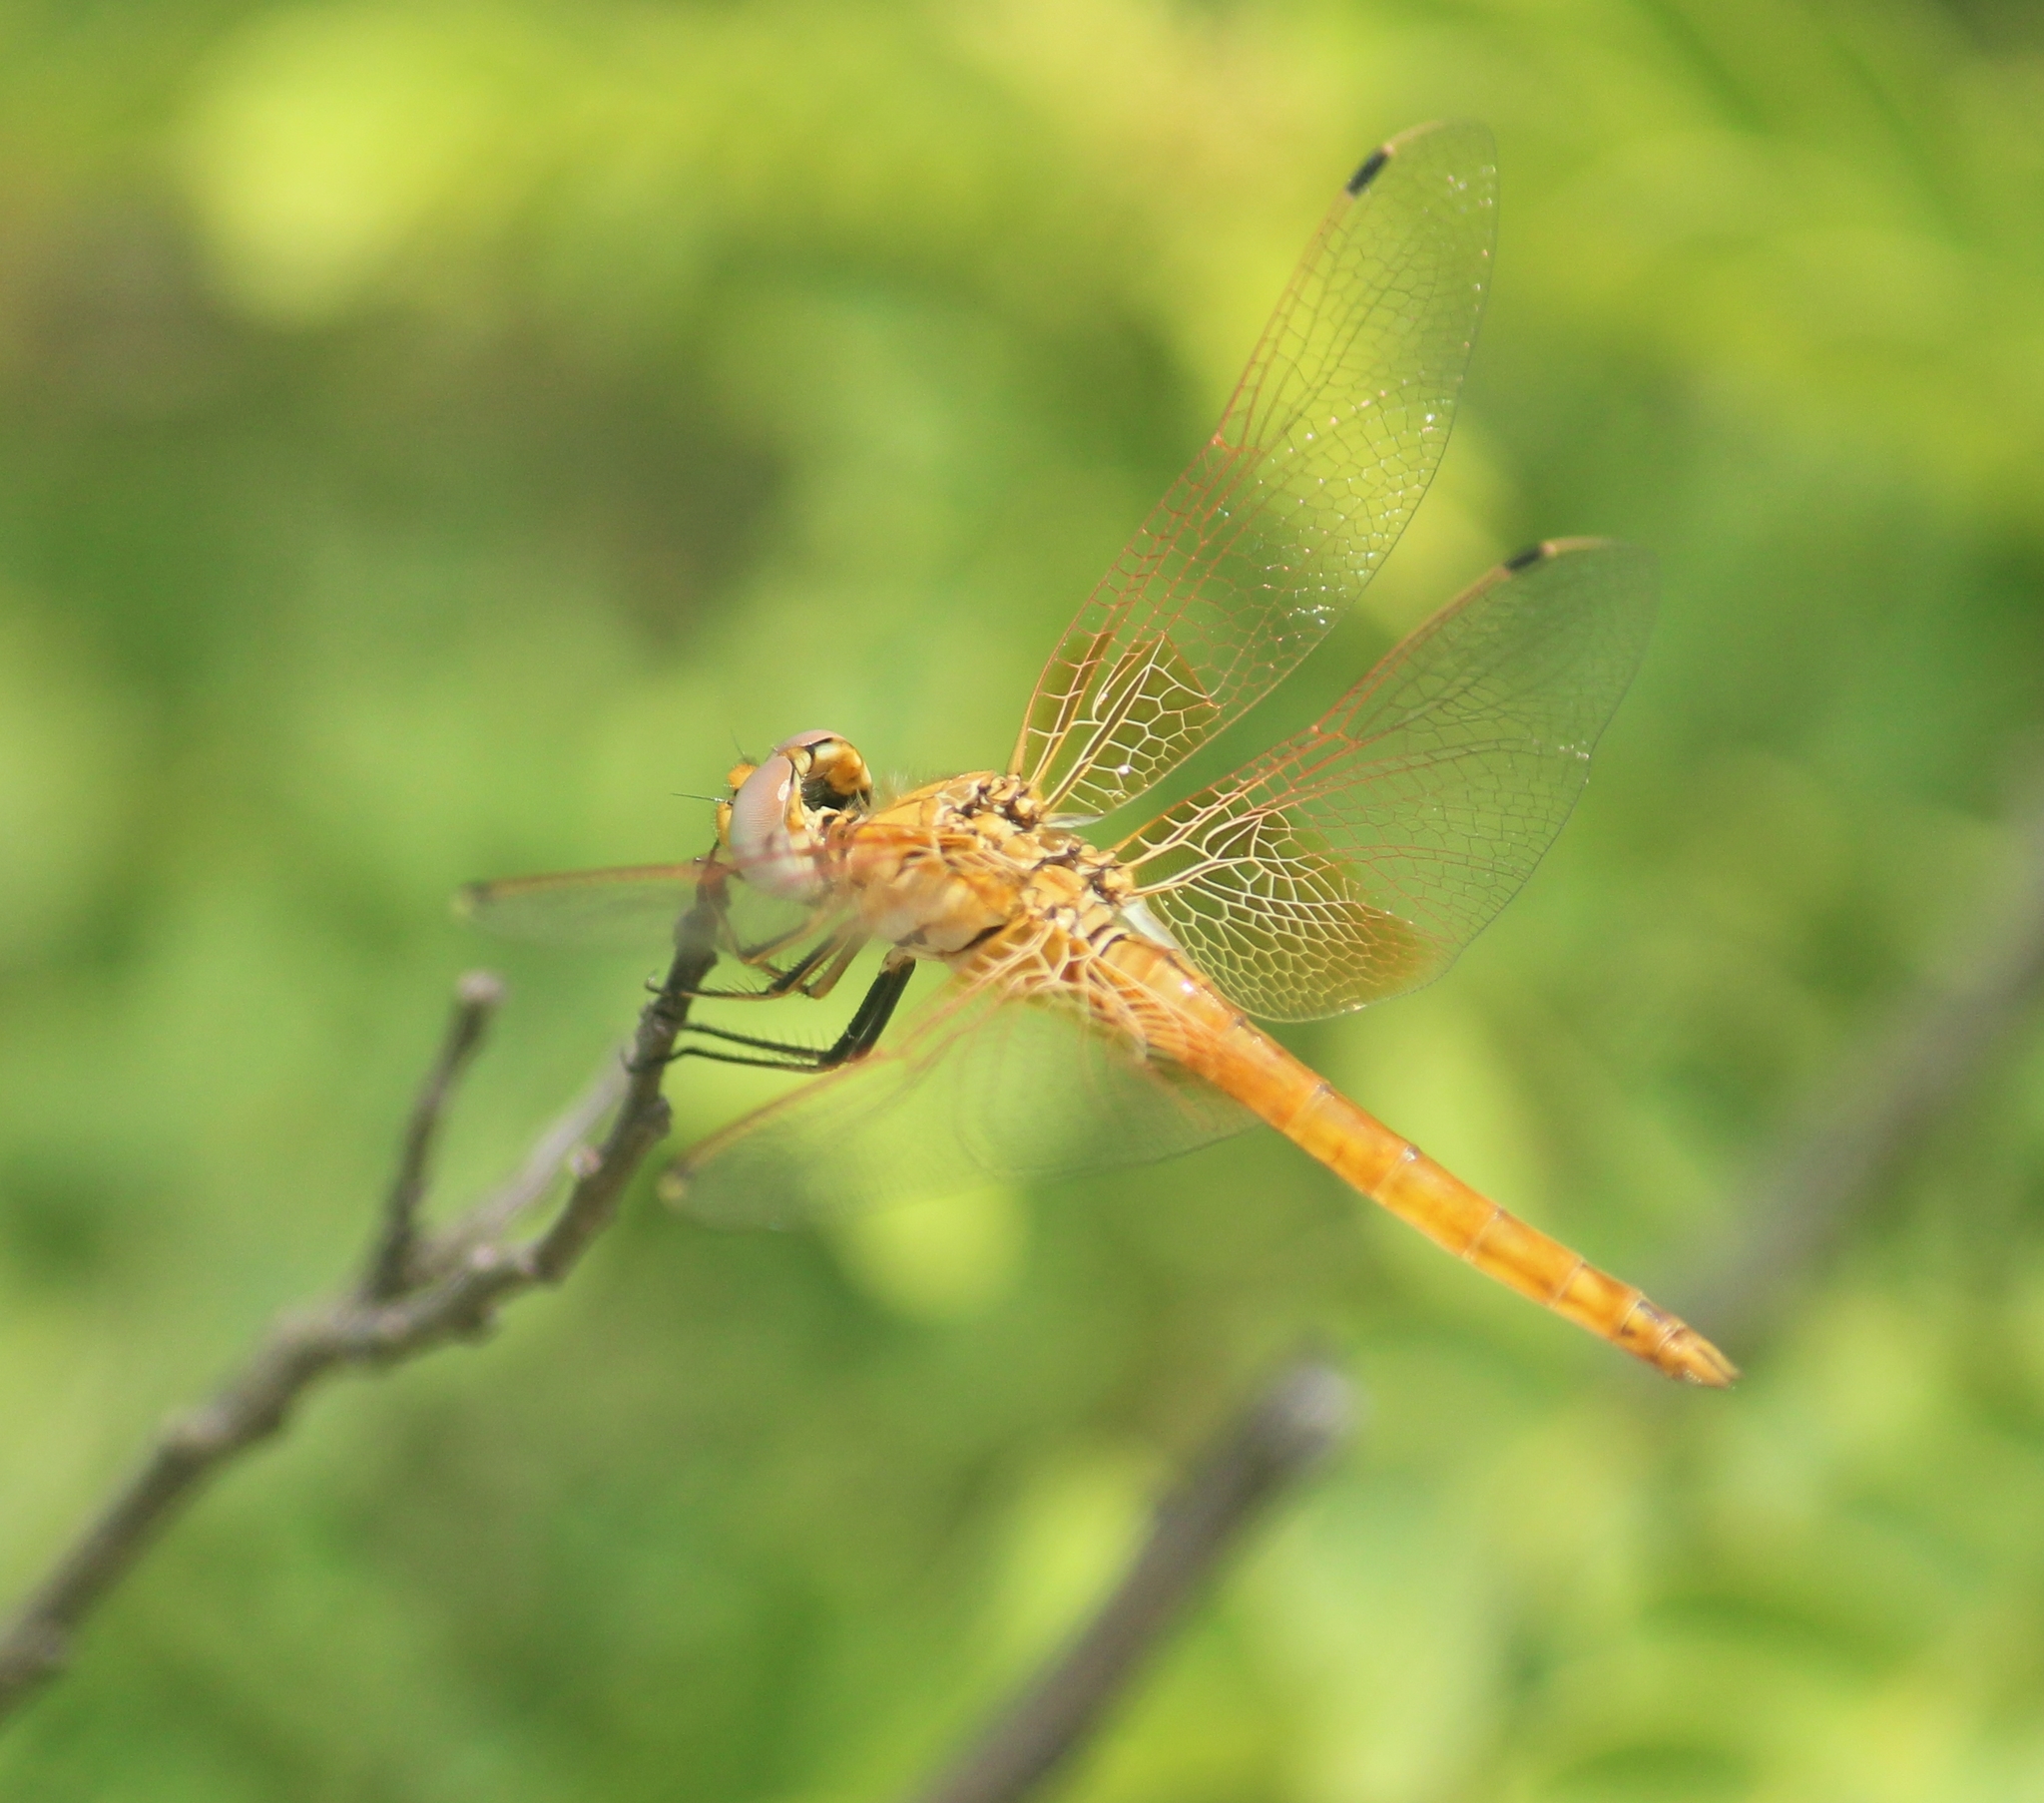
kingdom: Animalia
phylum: Arthropoda
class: Insecta
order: Odonata
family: Libellulidae
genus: Trithemis
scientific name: Trithemis kirbyi
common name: Kirby's dropwing
